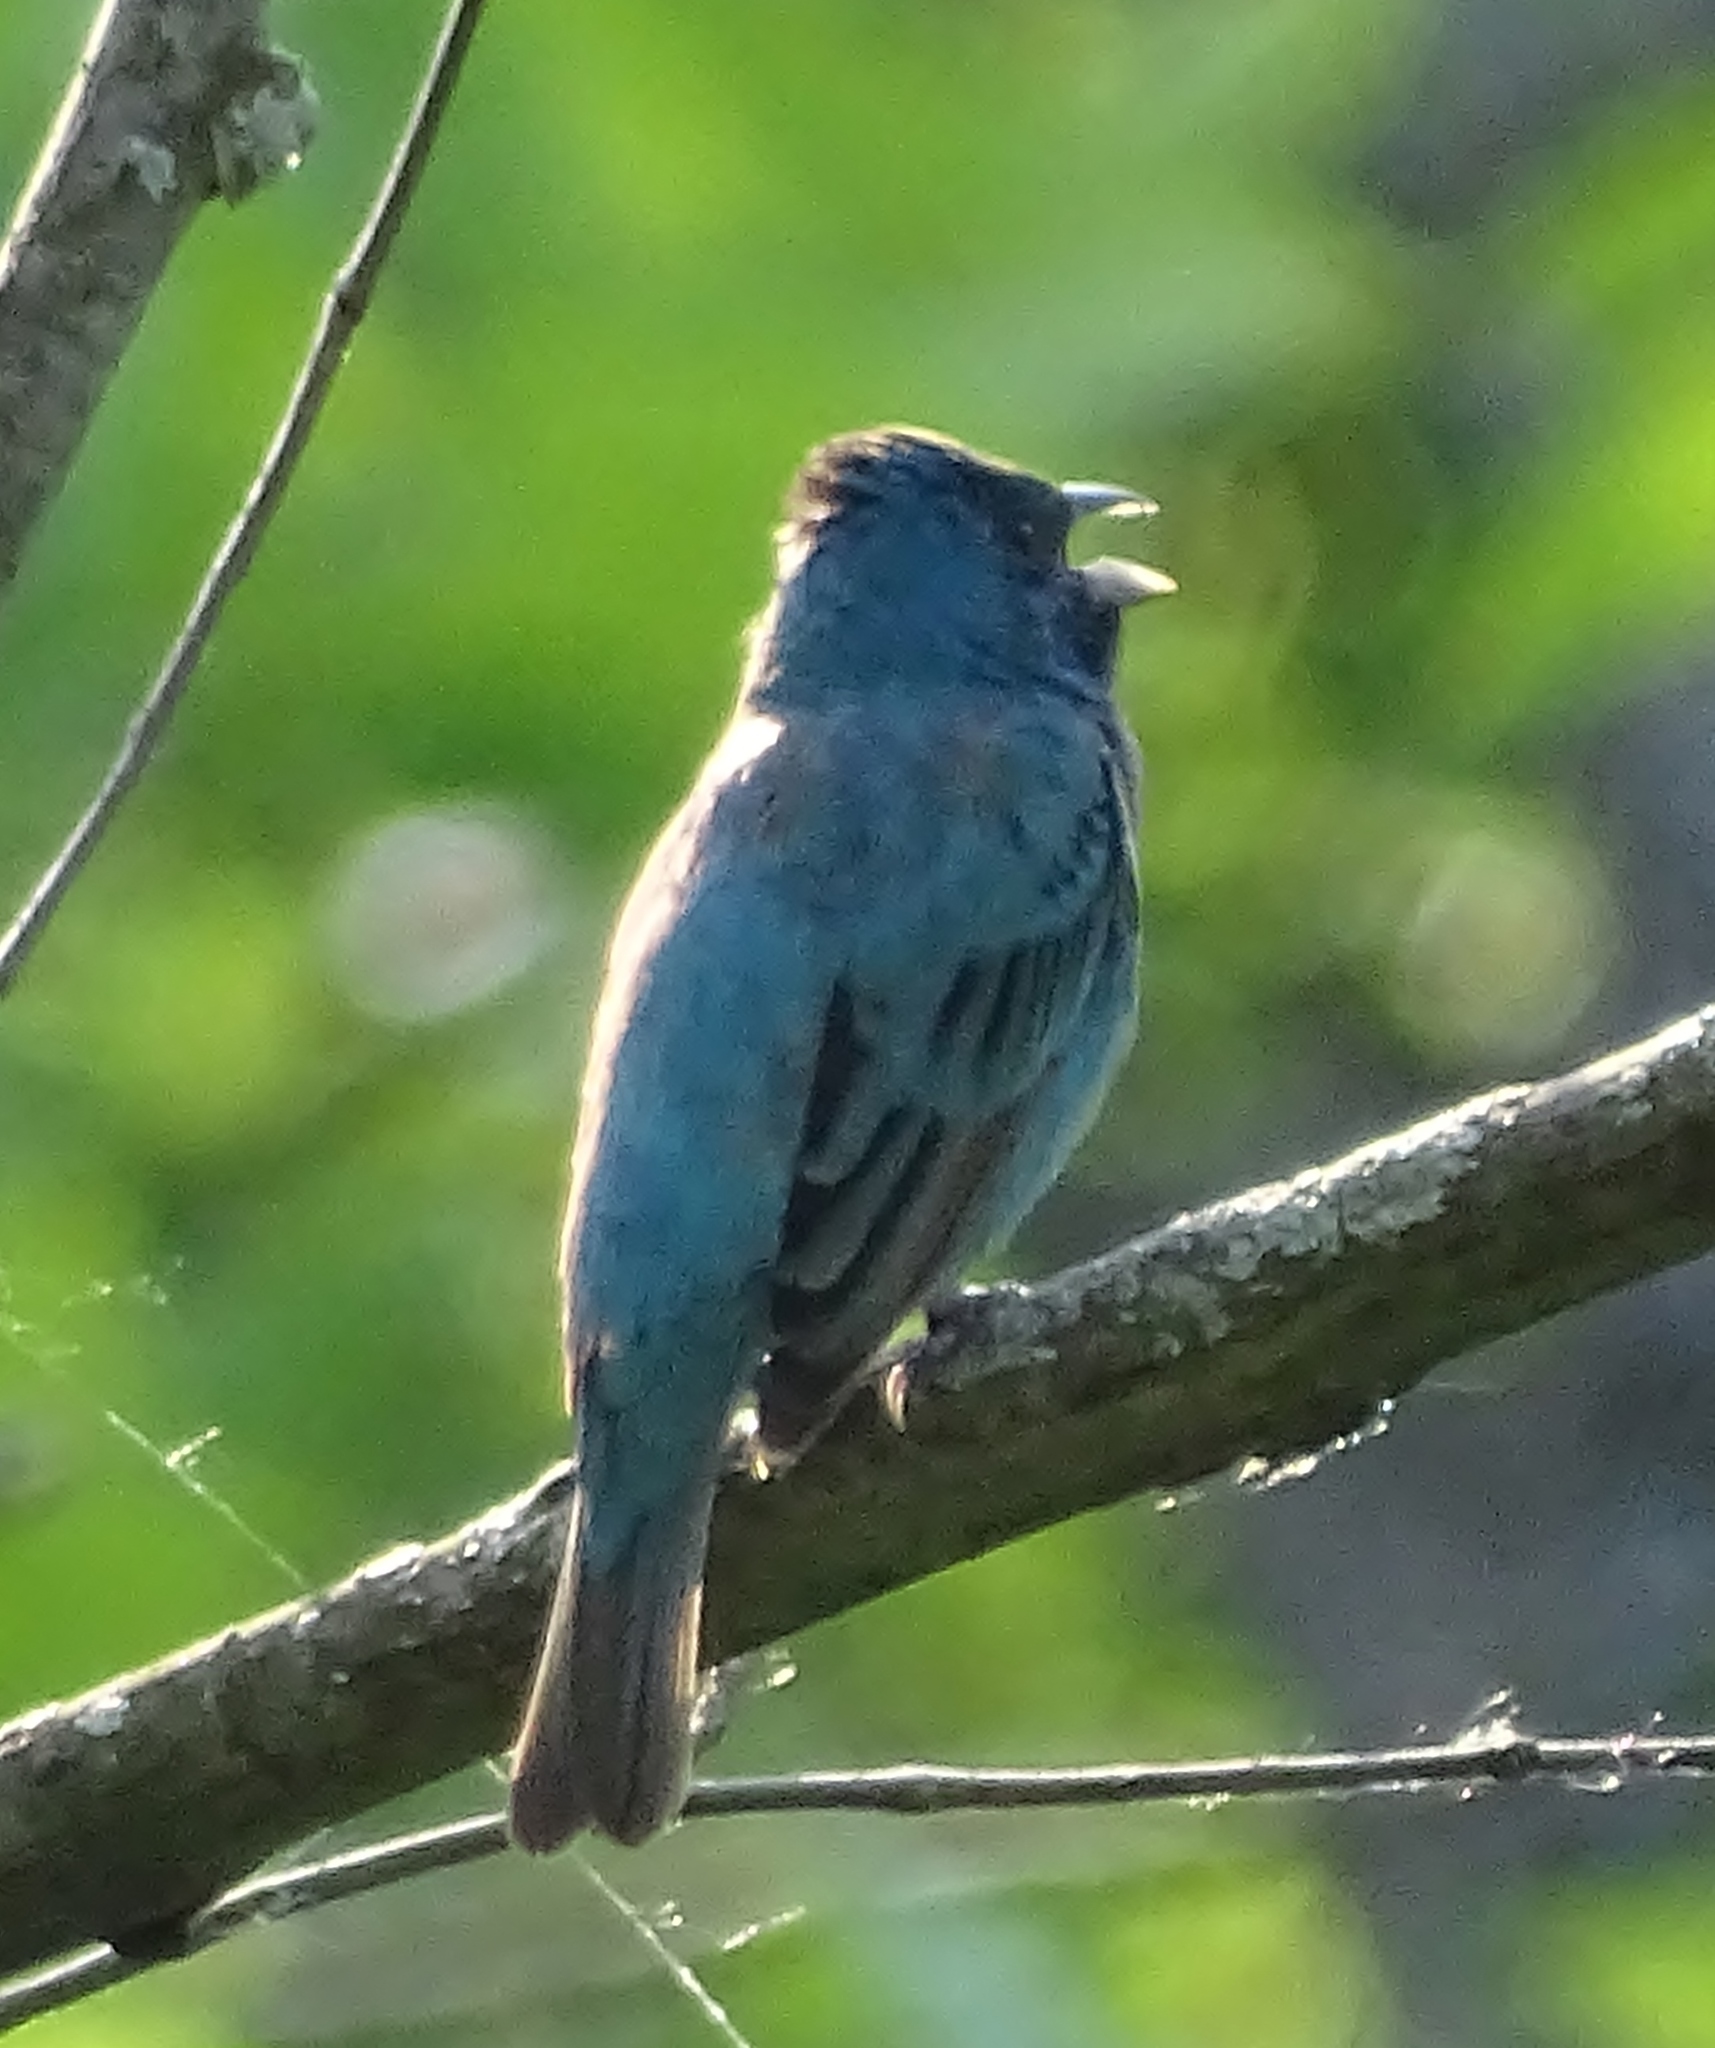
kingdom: Animalia
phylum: Chordata
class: Aves
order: Passeriformes
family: Cardinalidae
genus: Passerina
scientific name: Passerina cyanea
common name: Indigo bunting
